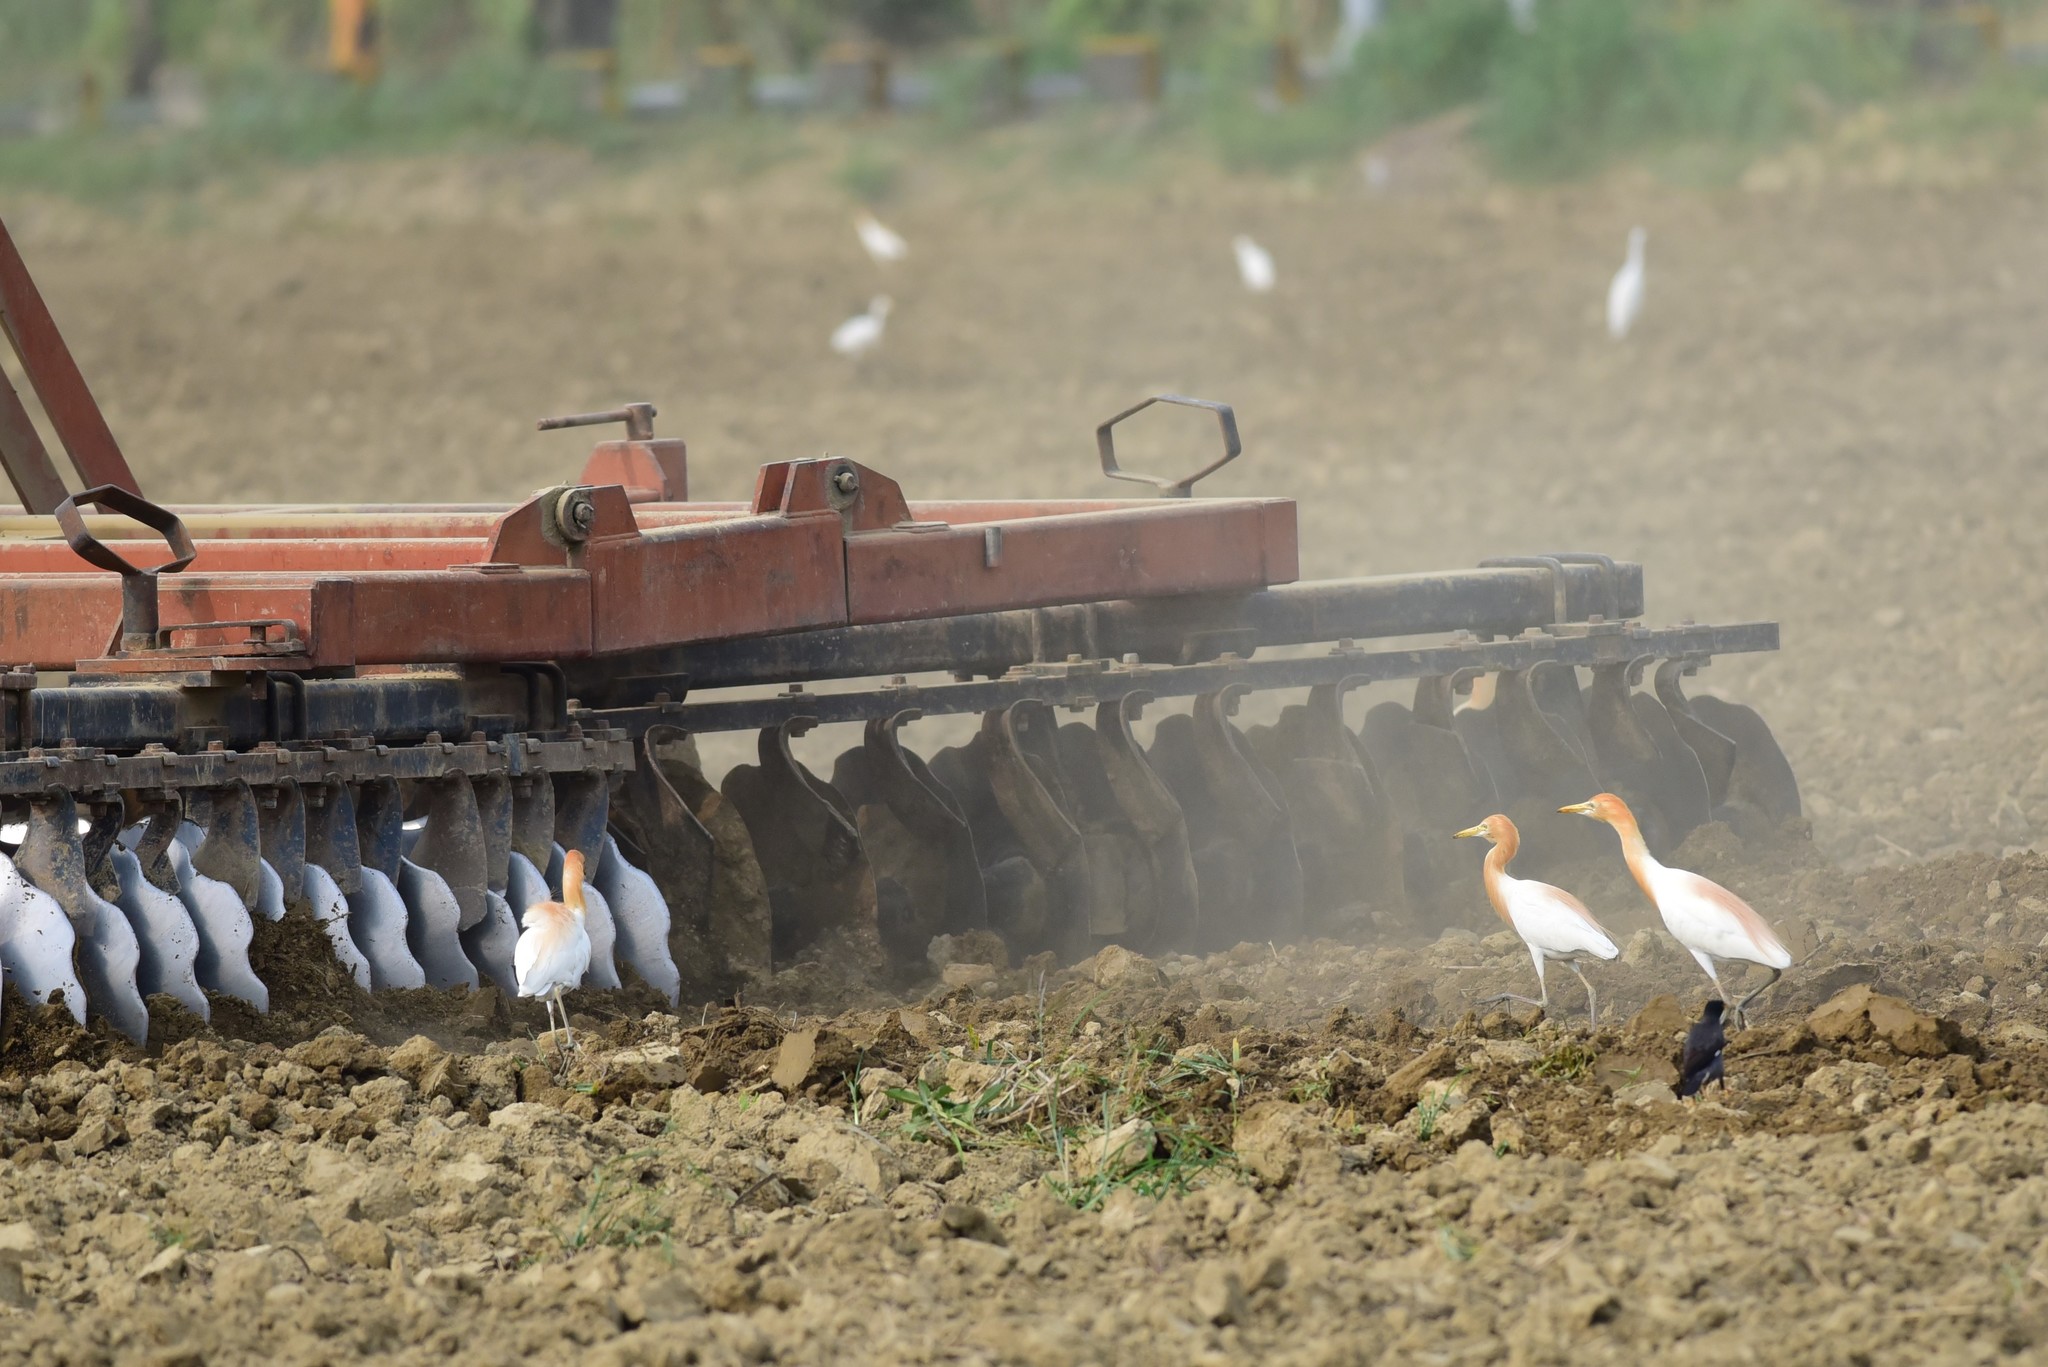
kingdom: Animalia
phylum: Chordata
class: Aves
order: Pelecaniformes
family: Ardeidae
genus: Bubulcus
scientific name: Bubulcus coromandus
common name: Eastern cattle egret
